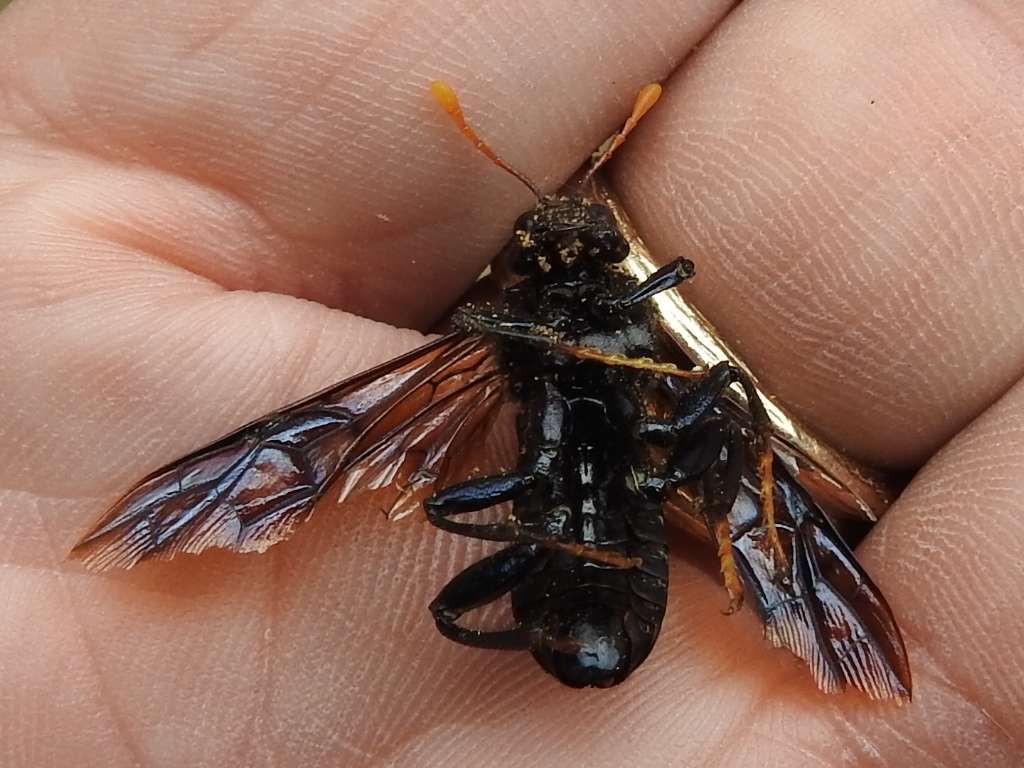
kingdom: Animalia
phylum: Arthropoda
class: Insecta
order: Hymenoptera
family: Cimbicidae
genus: Cimbex
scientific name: Cimbex americana
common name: Elm sawfly
